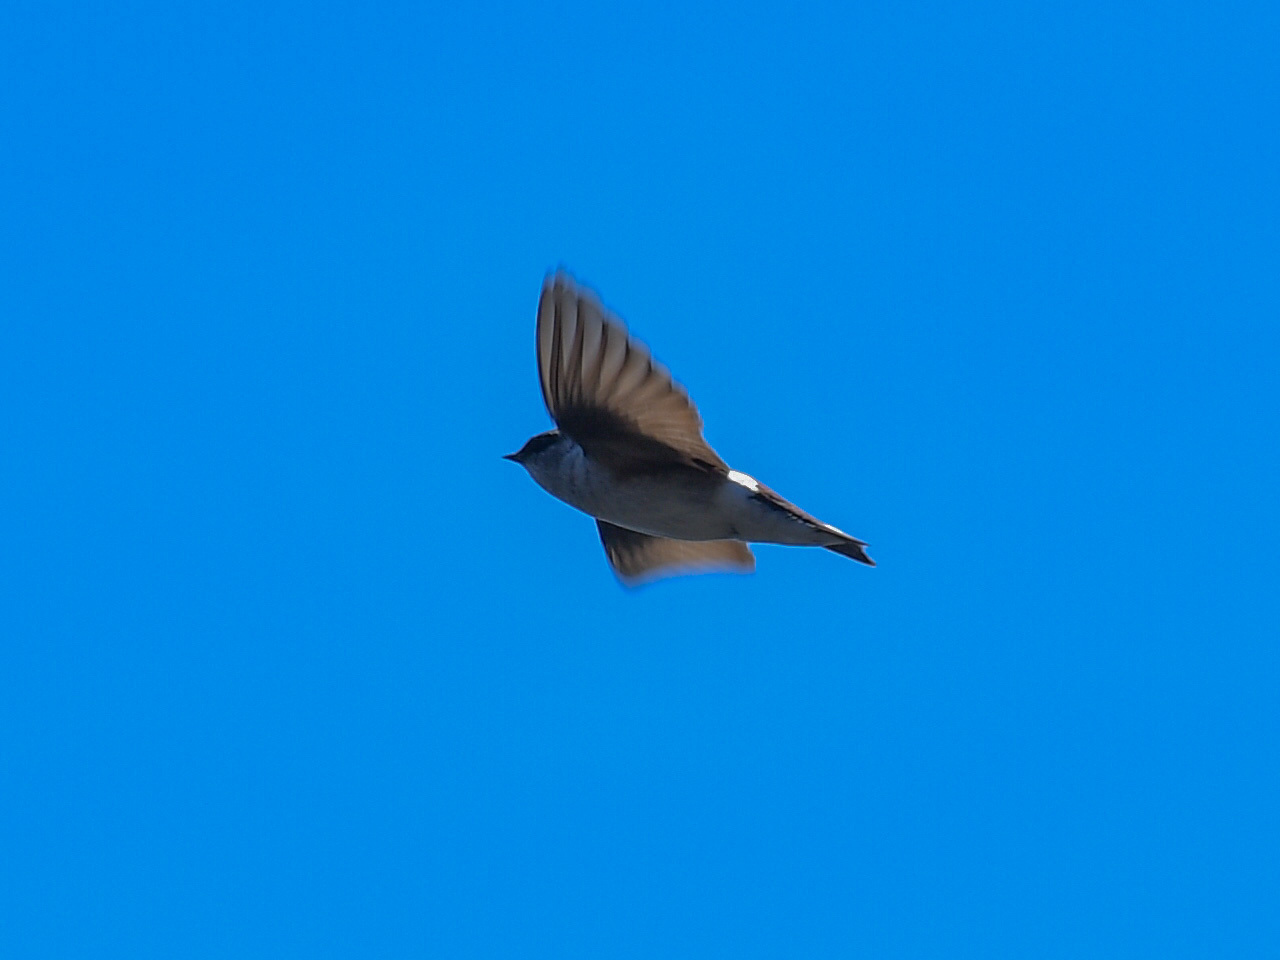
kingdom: Animalia
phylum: Chordata
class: Aves
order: Passeriformes
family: Hirundinidae
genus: Tachycineta
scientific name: Tachycineta thalassina
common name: Violet-green swallow
